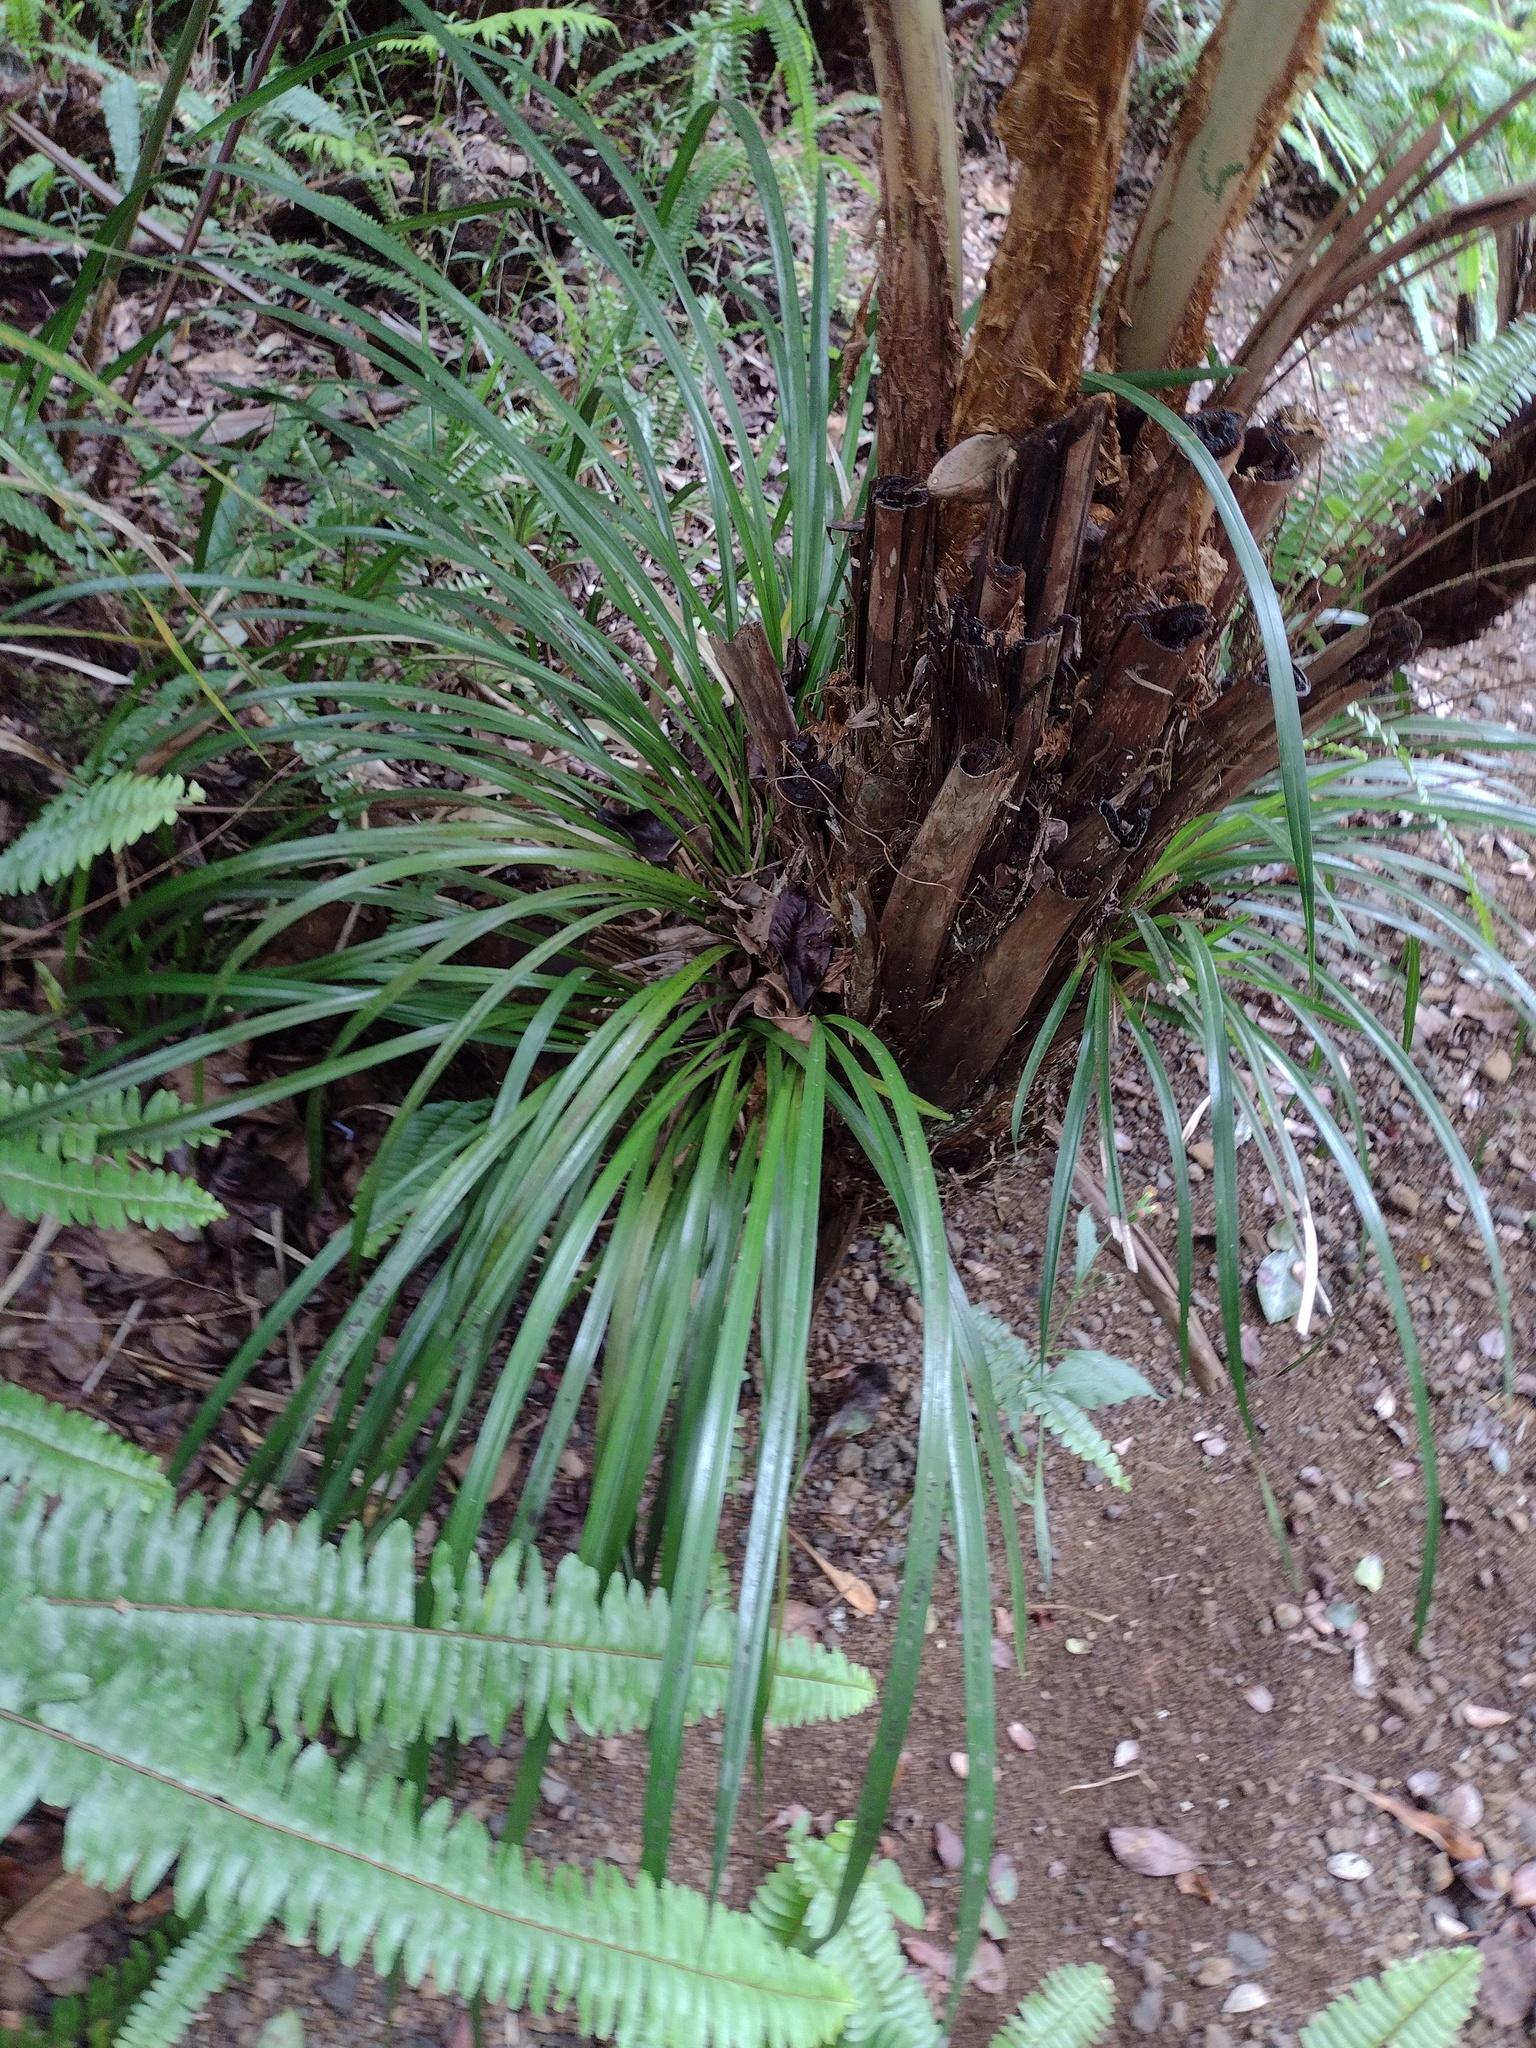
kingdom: Plantae
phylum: Tracheophyta
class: Liliopsida
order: Asparagales
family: Orchidaceae
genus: Cymbidium
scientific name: Cymbidium dayanum
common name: Orchid
